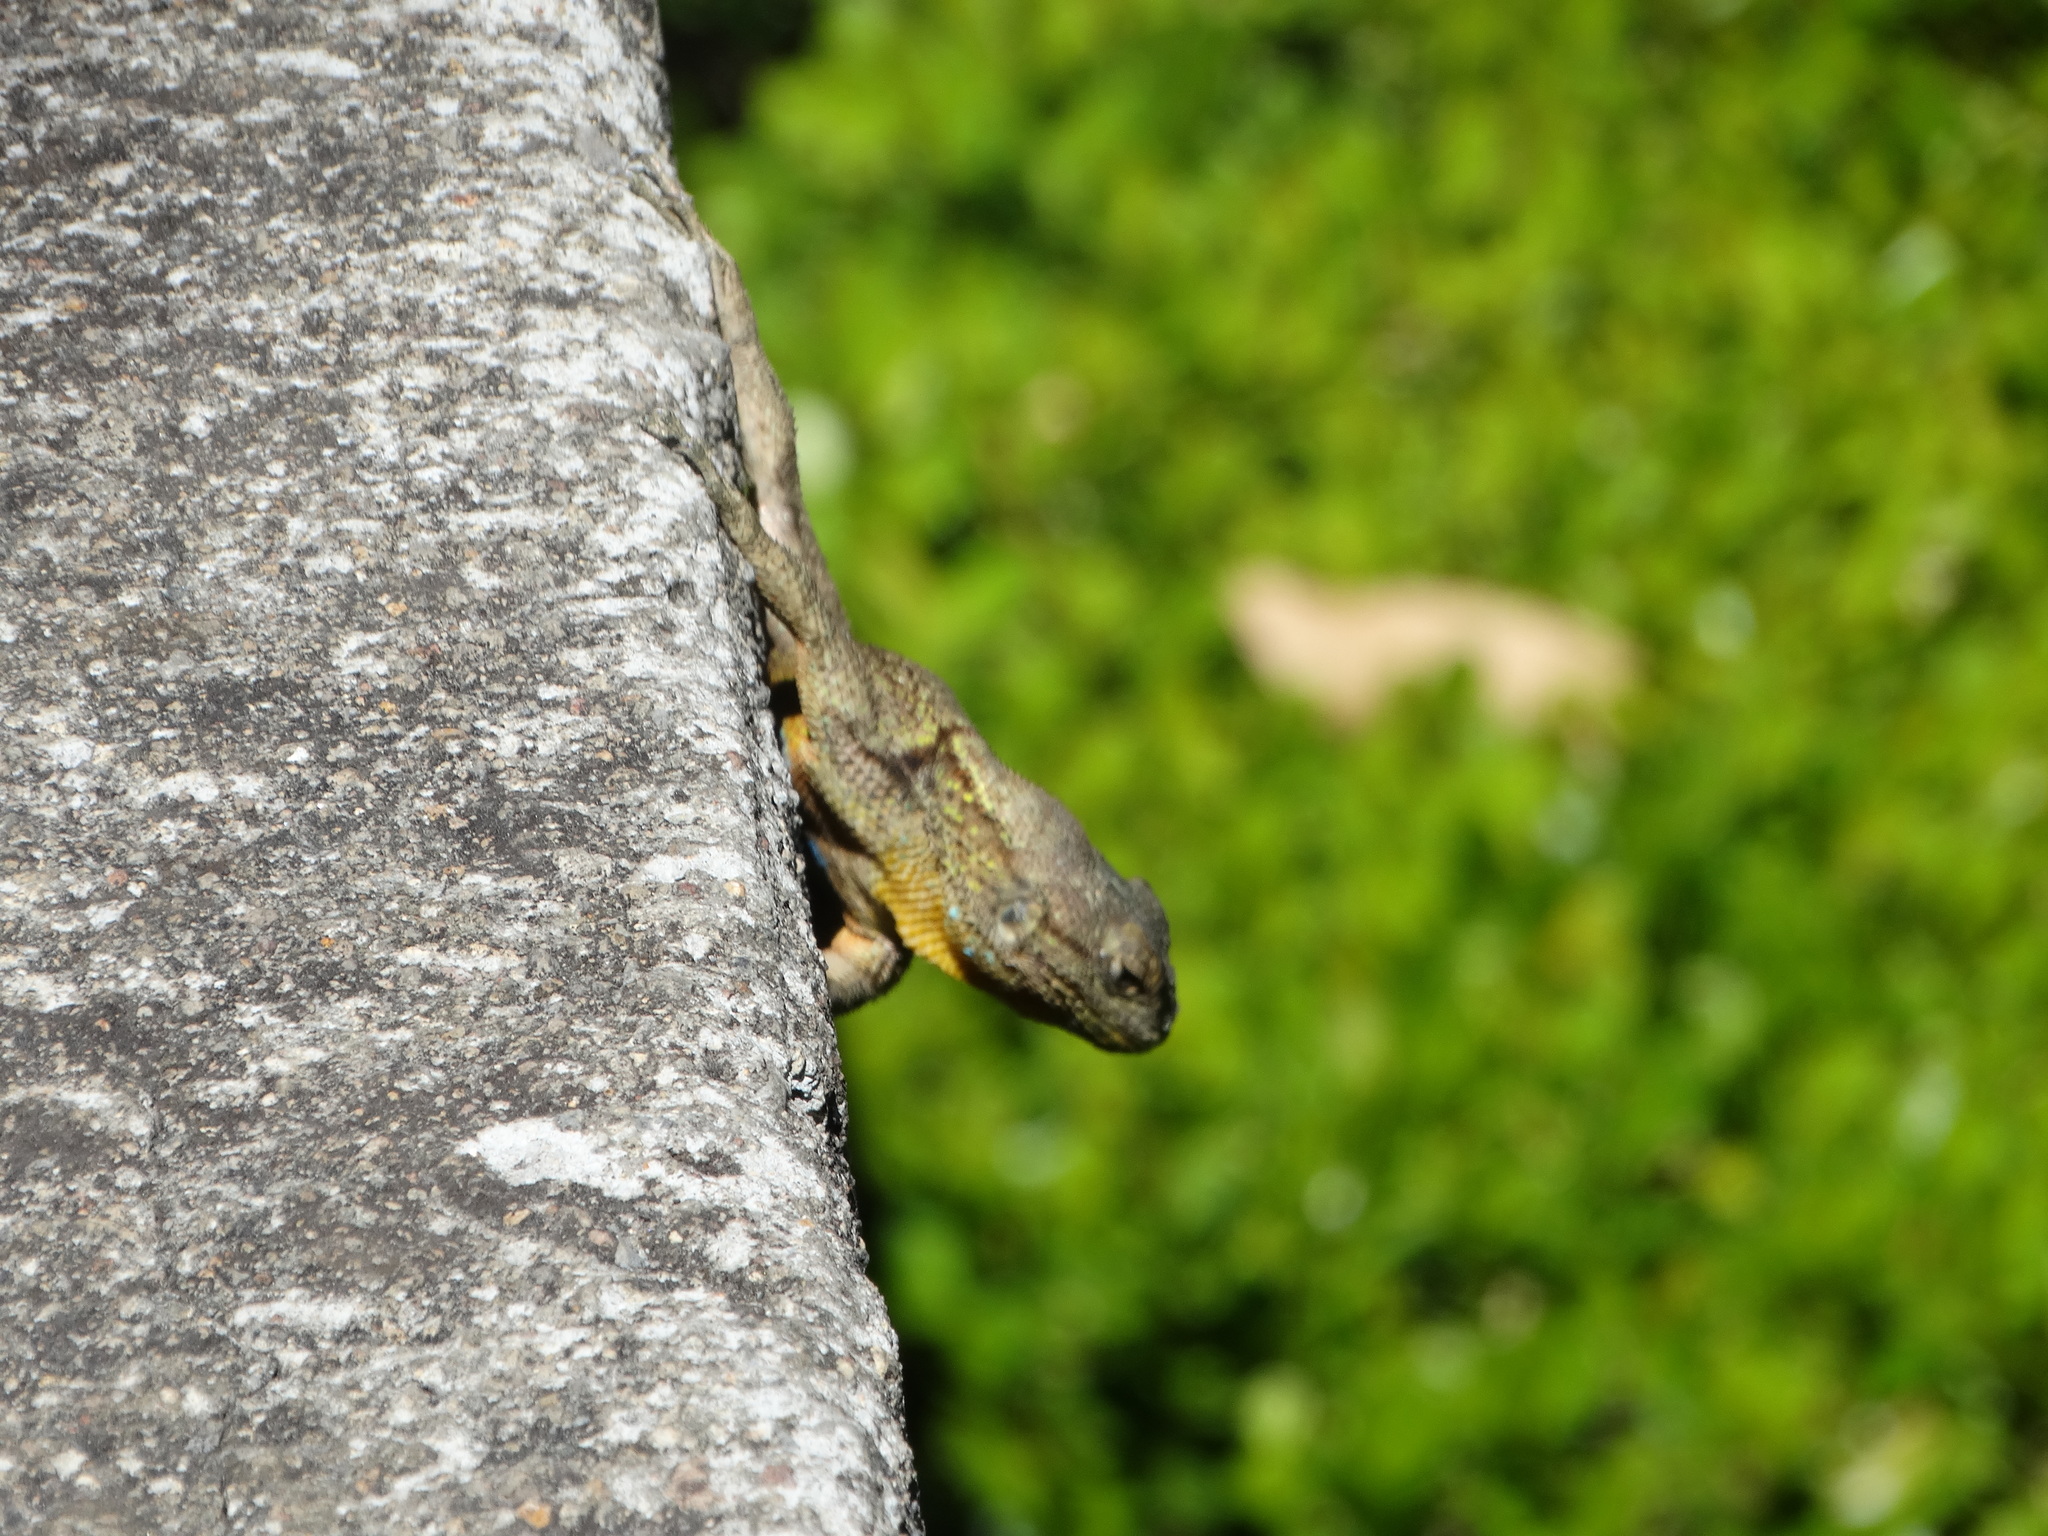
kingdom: Animalia
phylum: Chordata
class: Squamata
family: Phrynosomatidae
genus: Sceloporus
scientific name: Sceloporus grammicus
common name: Mesquite lizard
